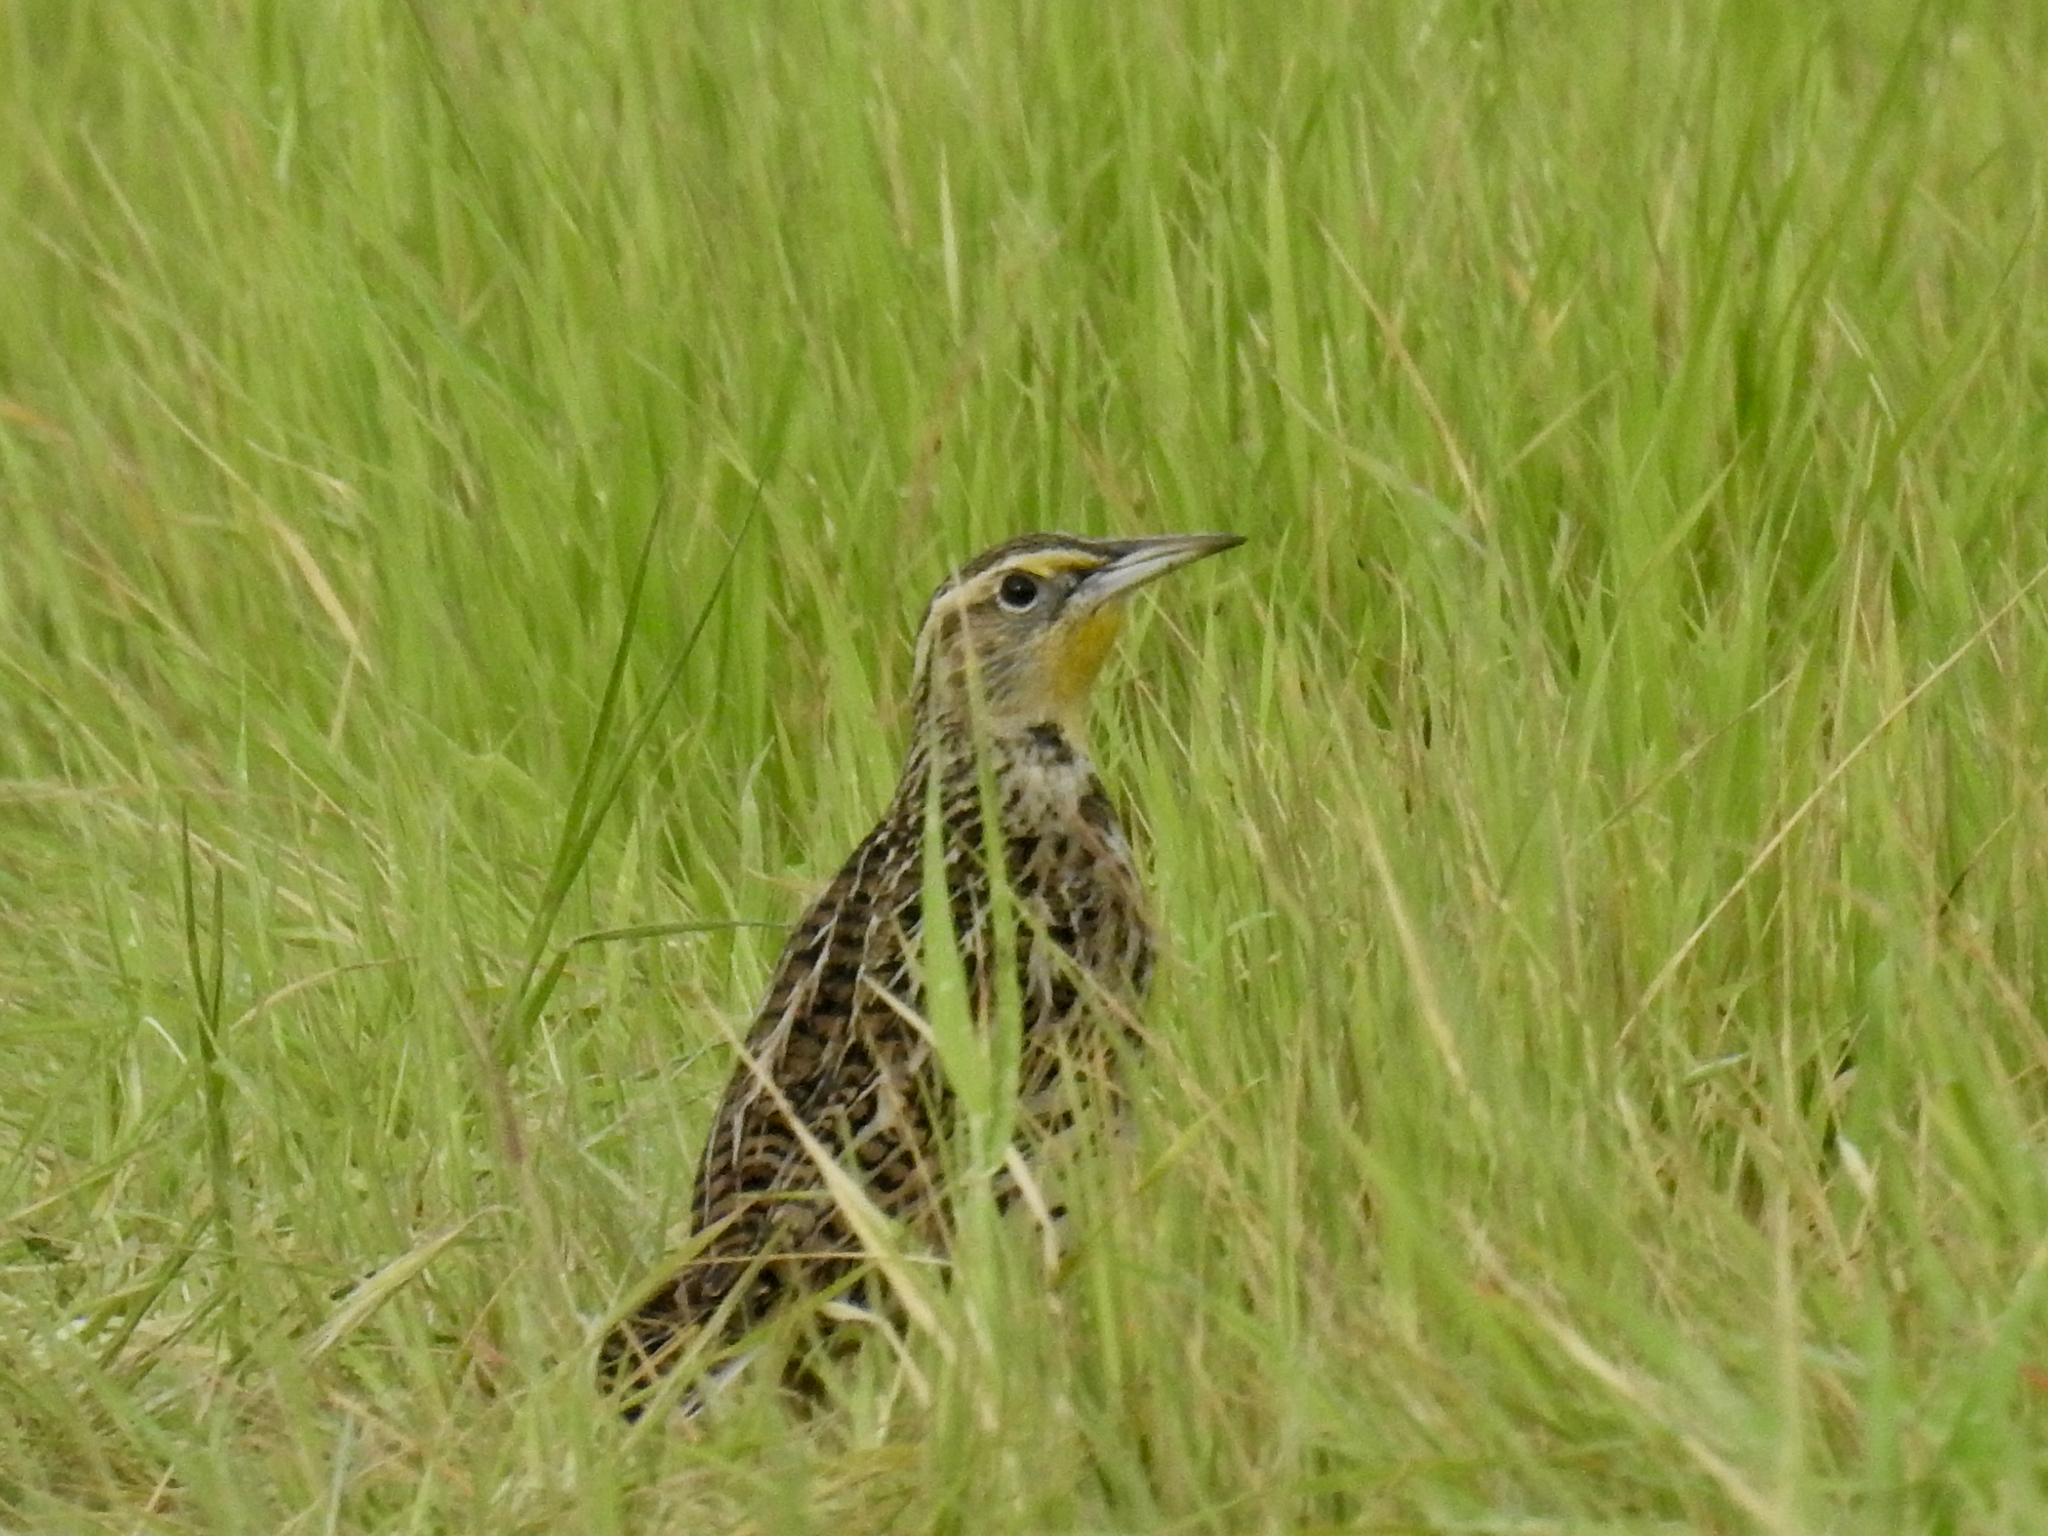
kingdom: Animalia
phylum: Chordata
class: Aves
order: Passeriformes
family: Icteridae
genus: Sturnella
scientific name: Sturnella neglecta
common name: Western meadowlark
